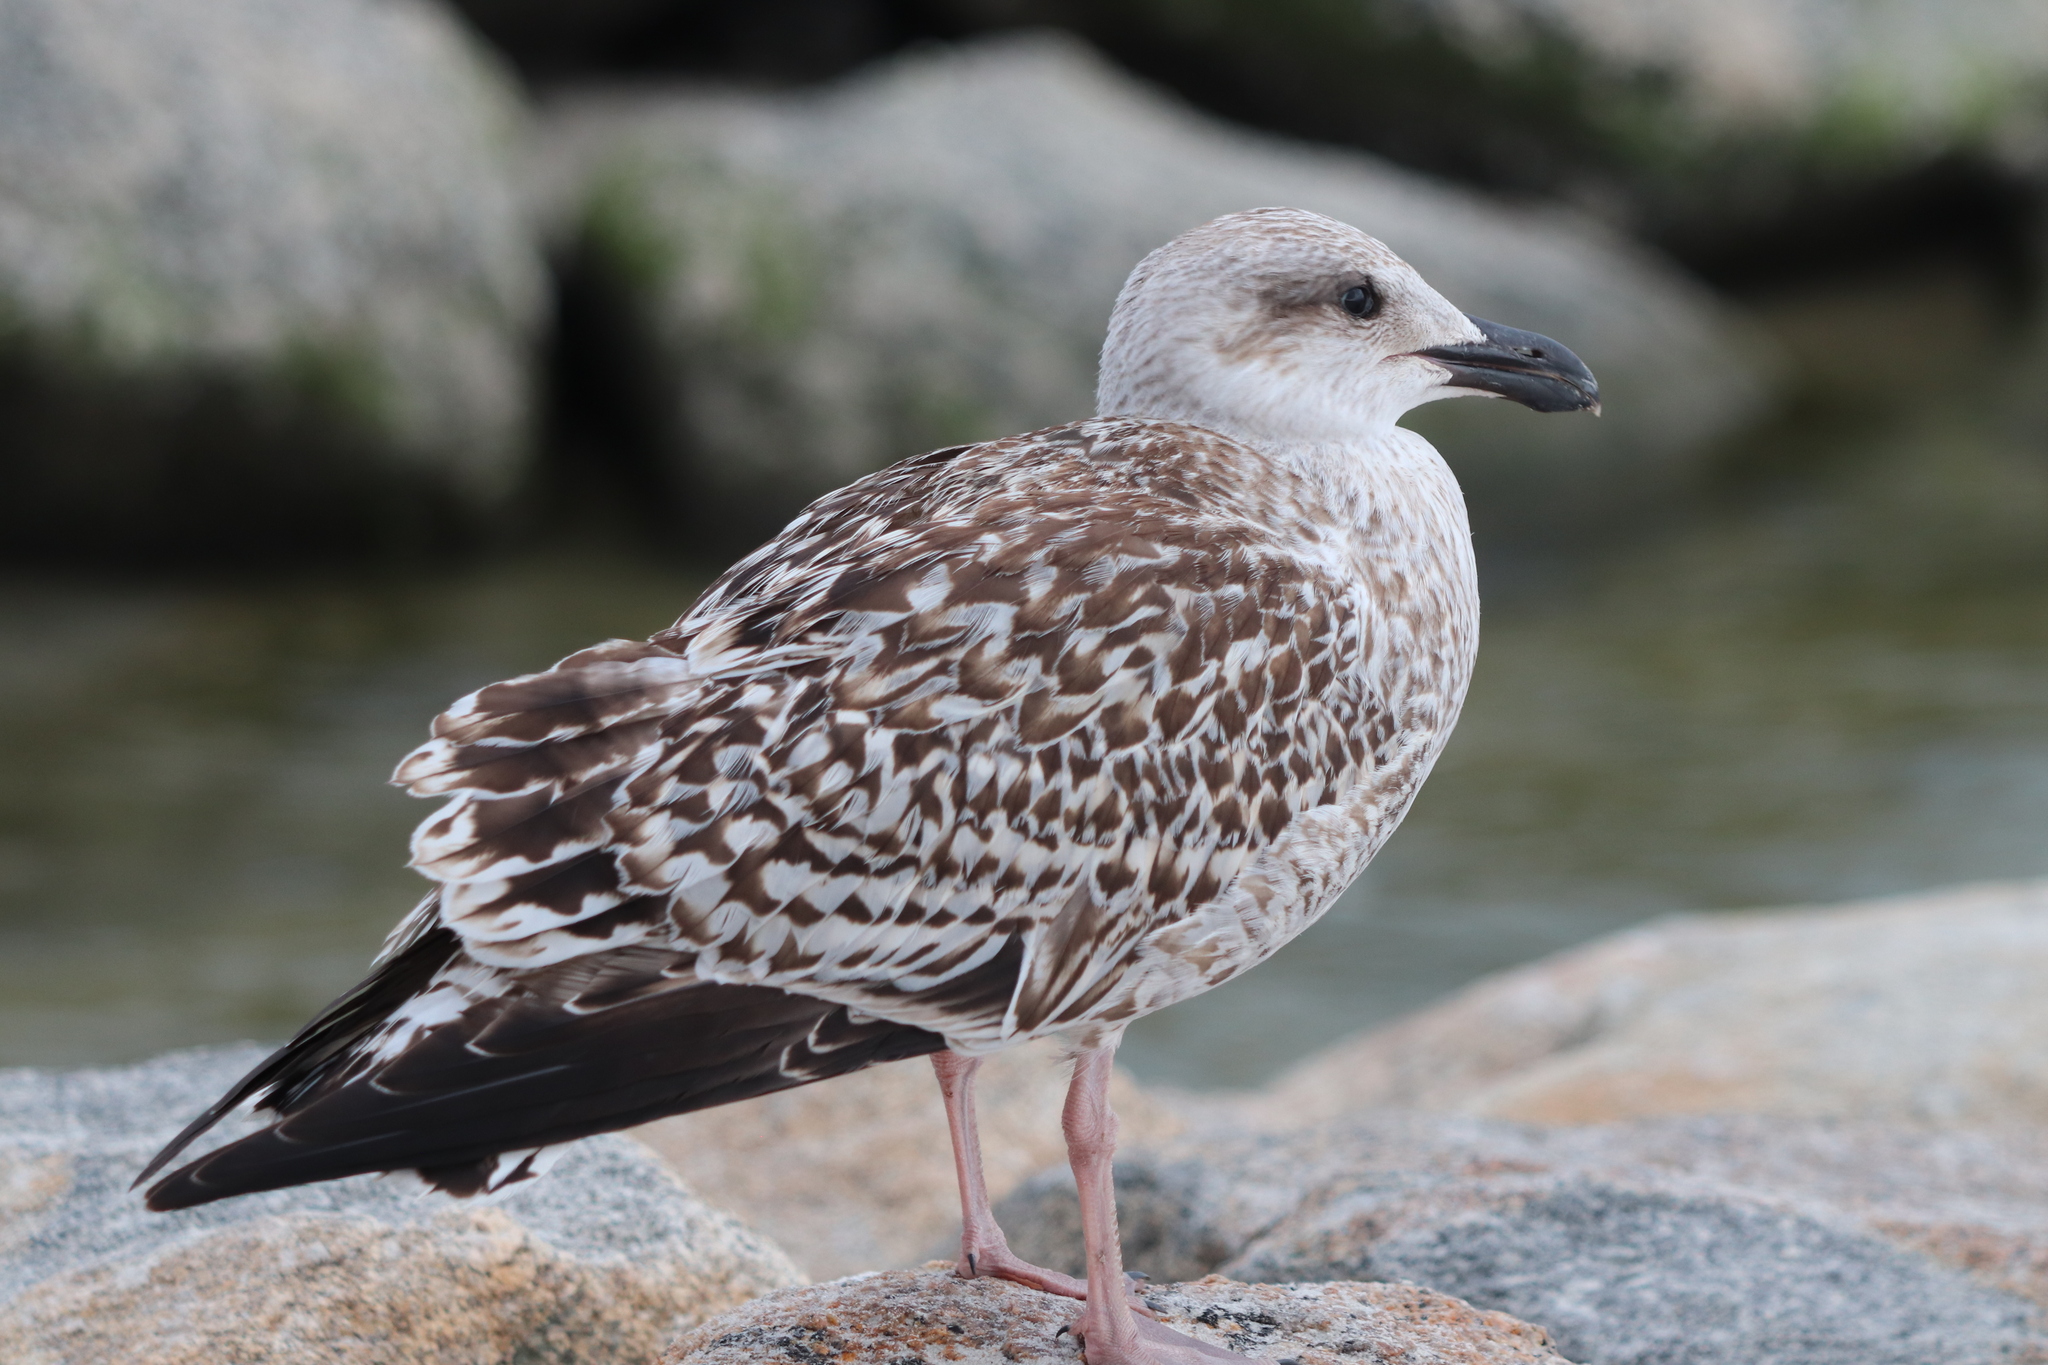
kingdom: Animalia
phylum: Chordata
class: Aves
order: Charadriiformes
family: Laridae
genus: Larus
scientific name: Larus marinus
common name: Great black-backed gull
